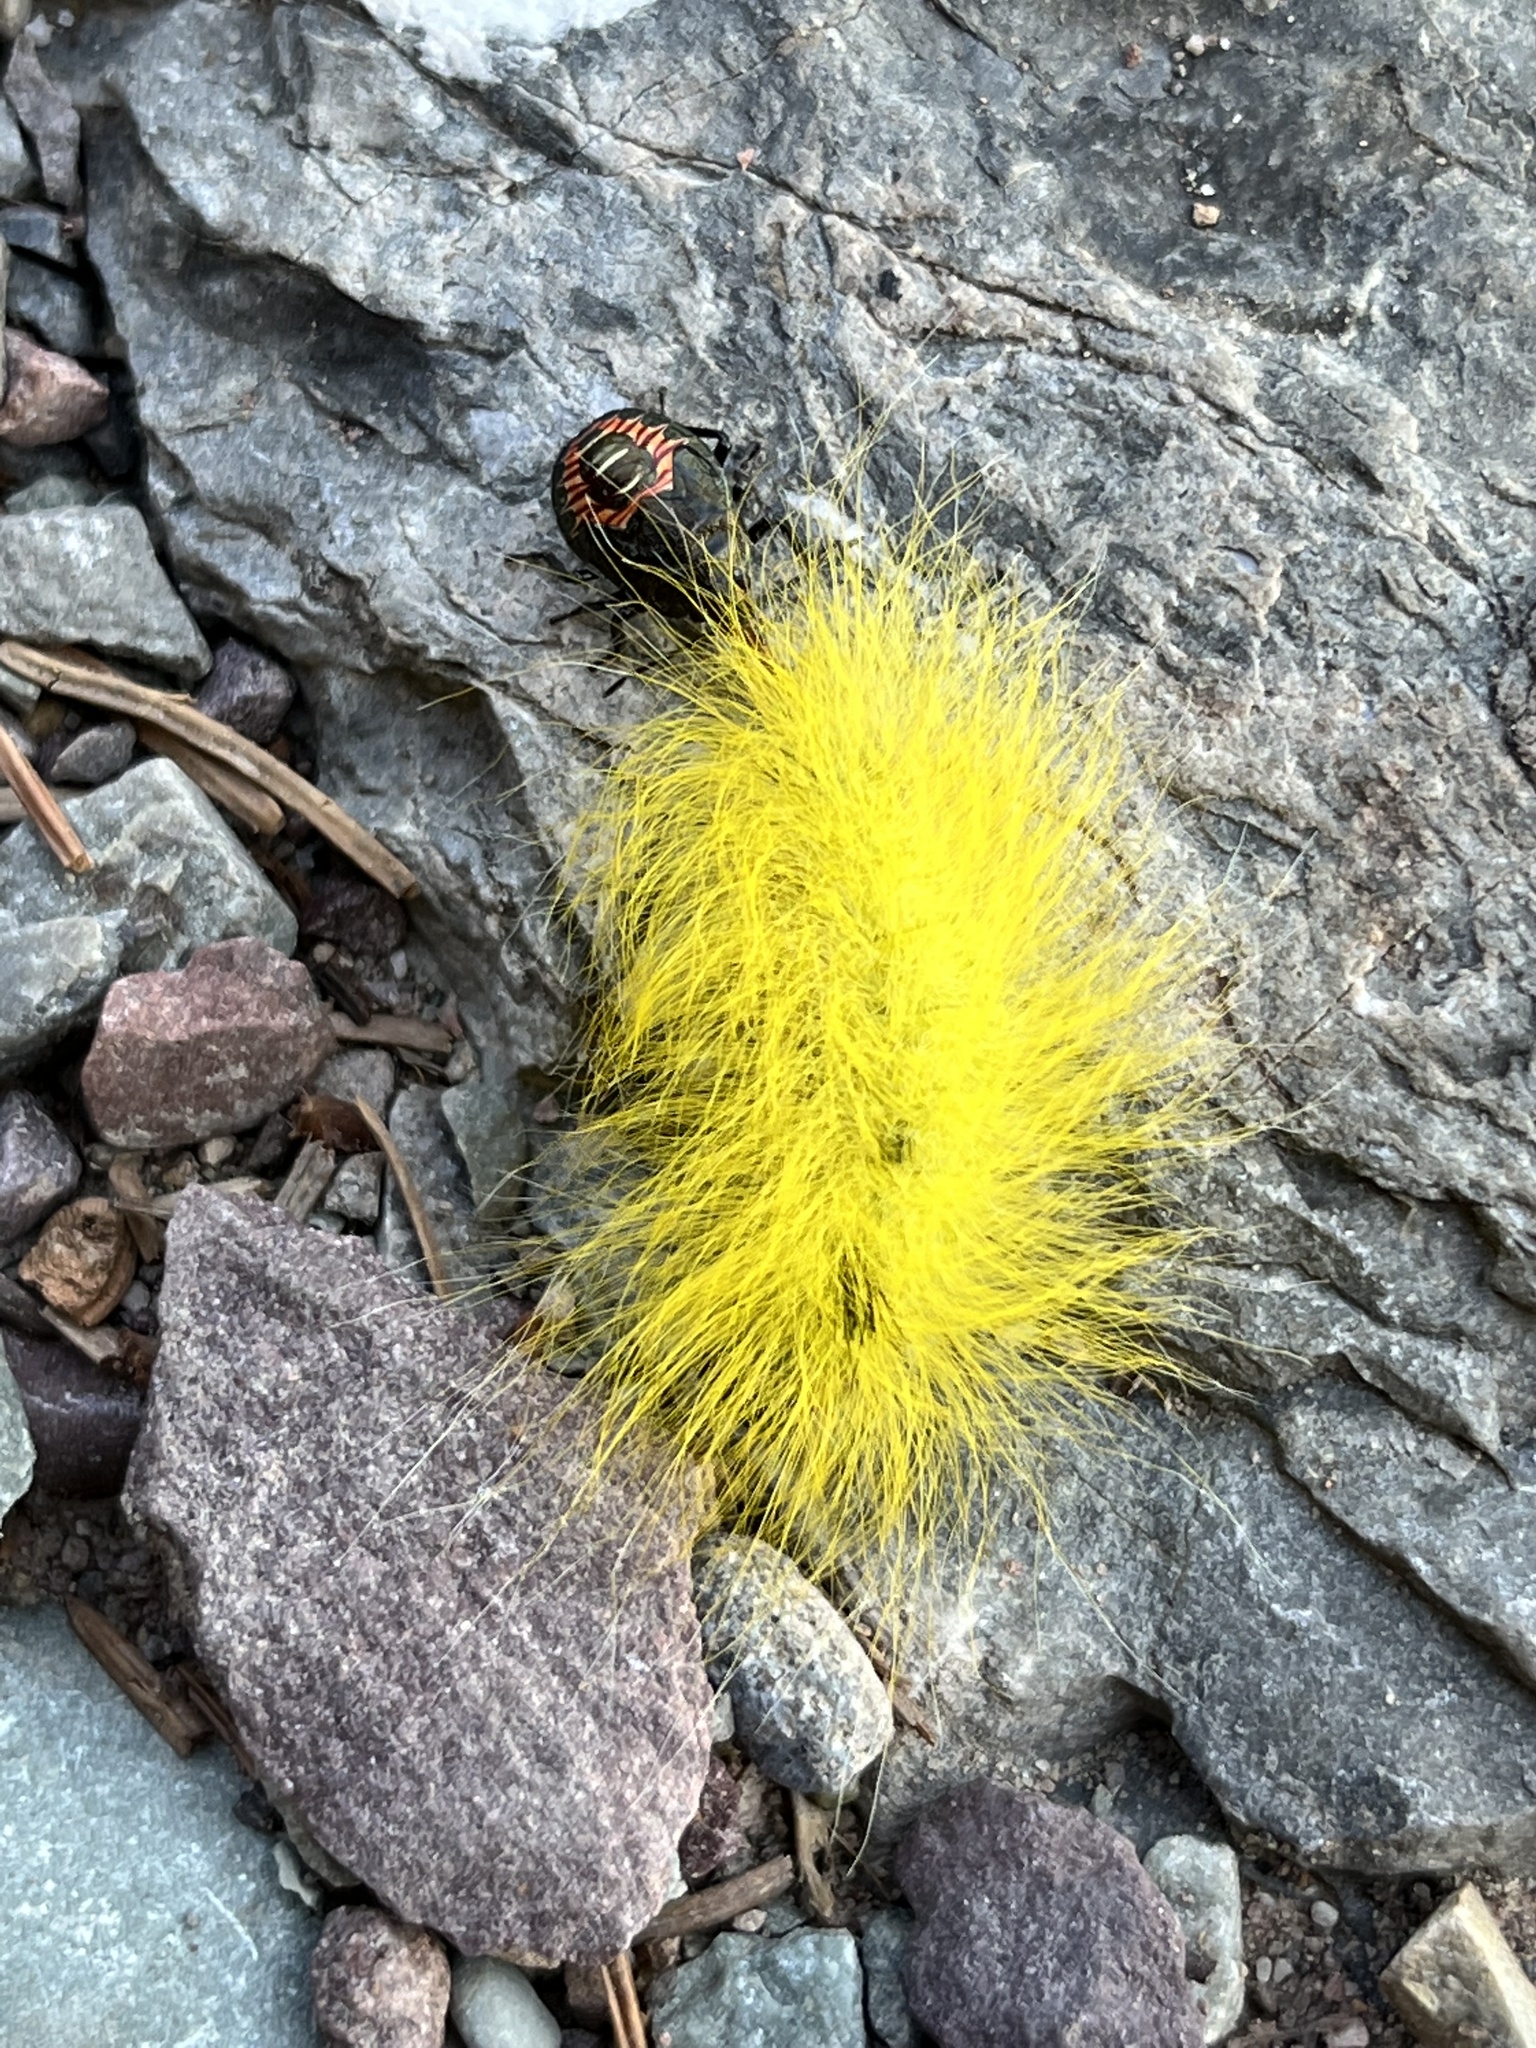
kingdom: Animalia
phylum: Arthropoda
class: Insecta
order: Lepidoptera
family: Noctuidae
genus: Acronicta
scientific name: Acronicta lepusculina
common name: Cottonwood dagger
